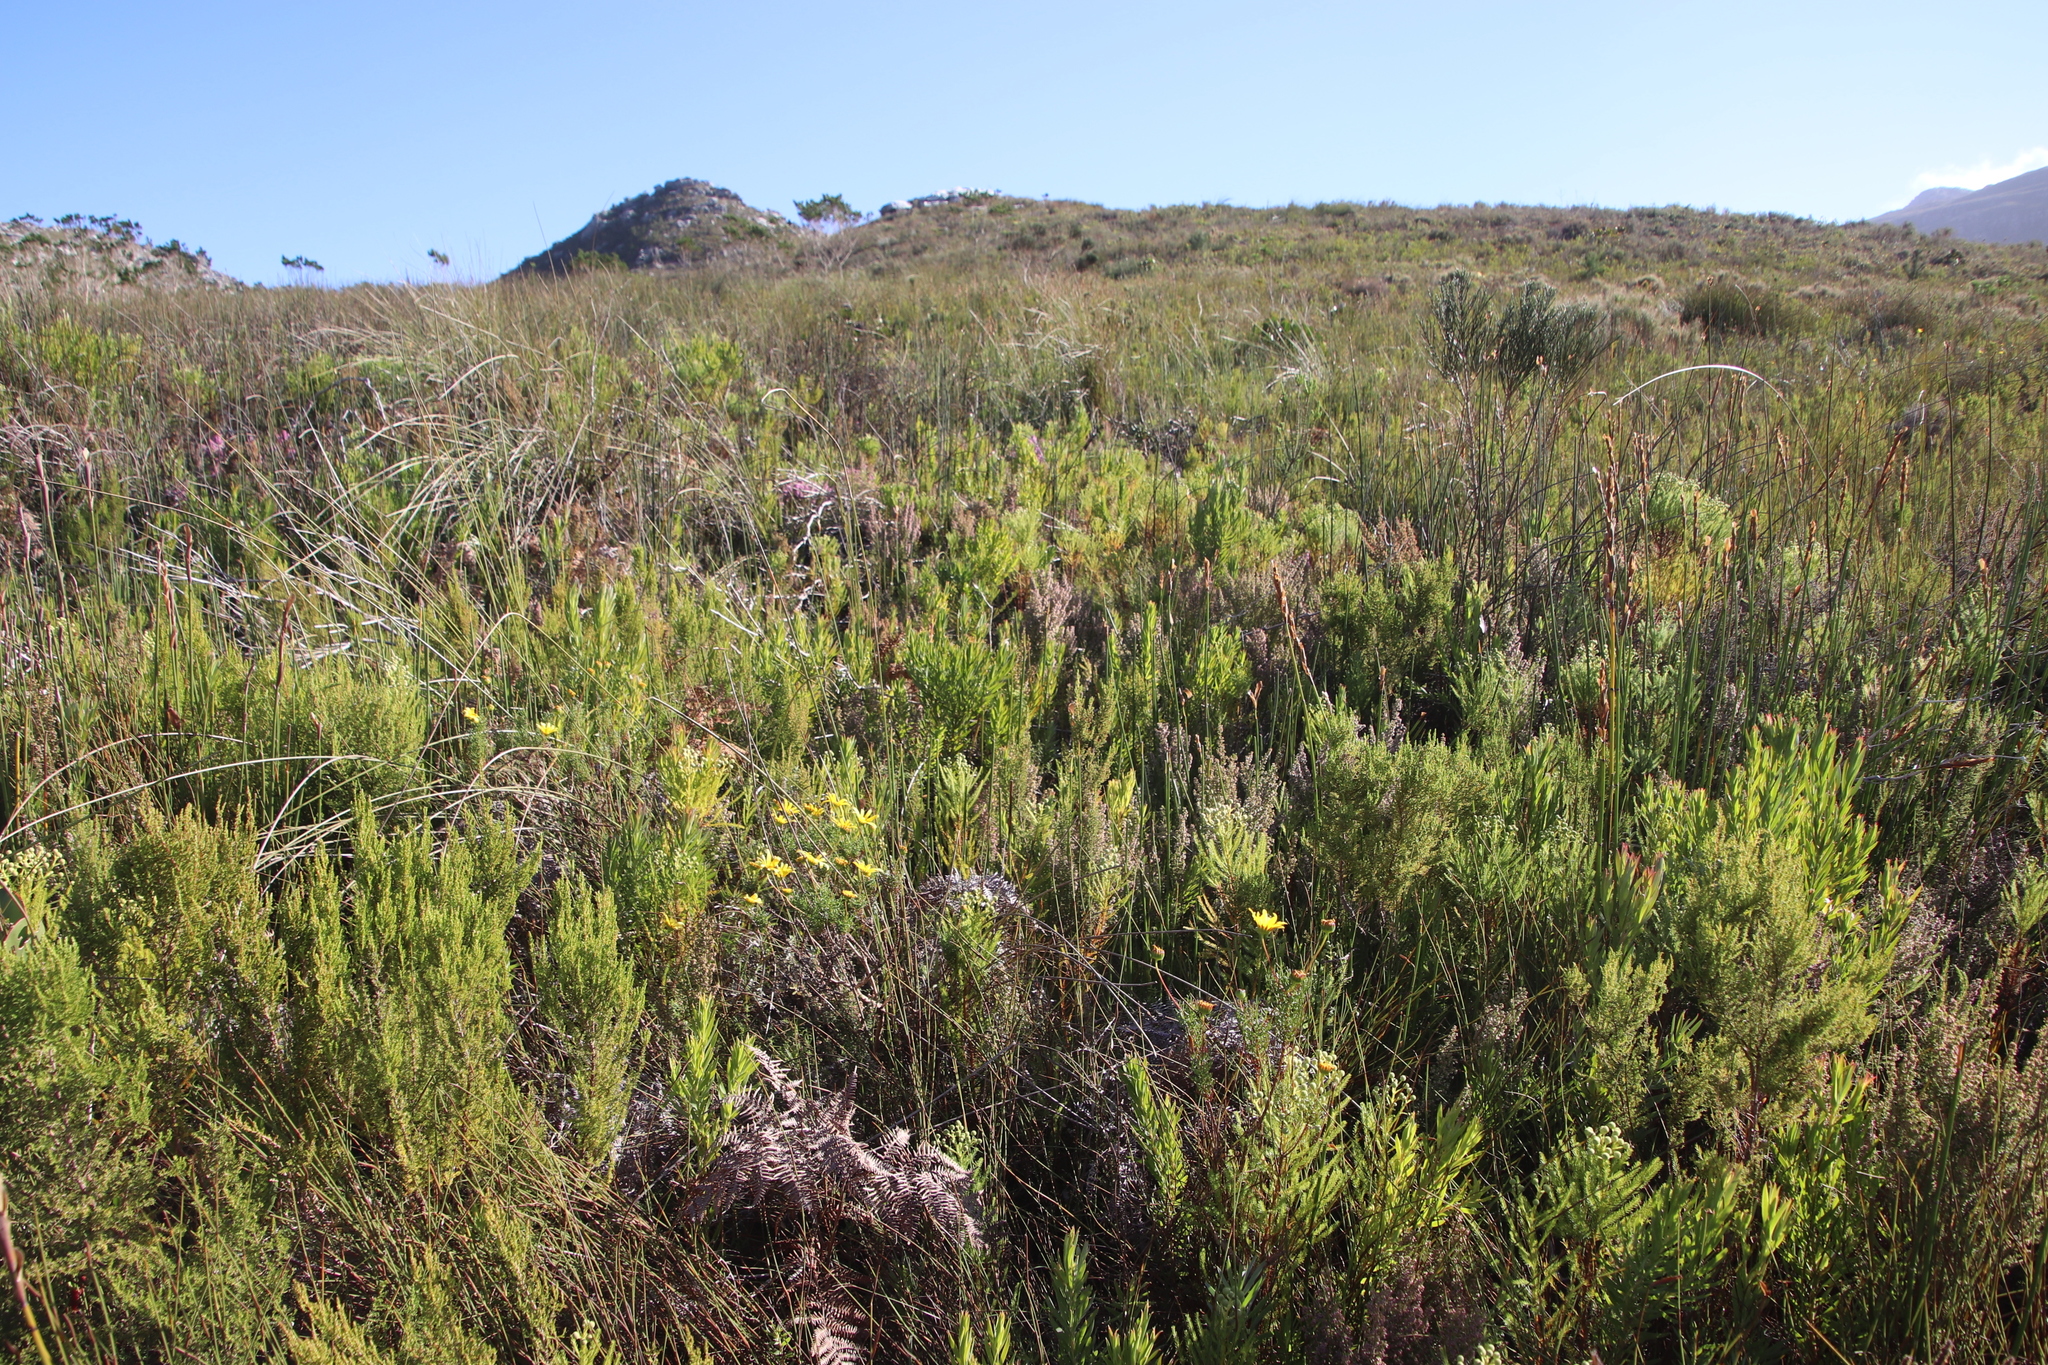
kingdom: Plantae
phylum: Tracheophyta
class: Magnoliopsida
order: Ericales
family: Ericaceae
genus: Erica
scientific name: Erica hispidula
